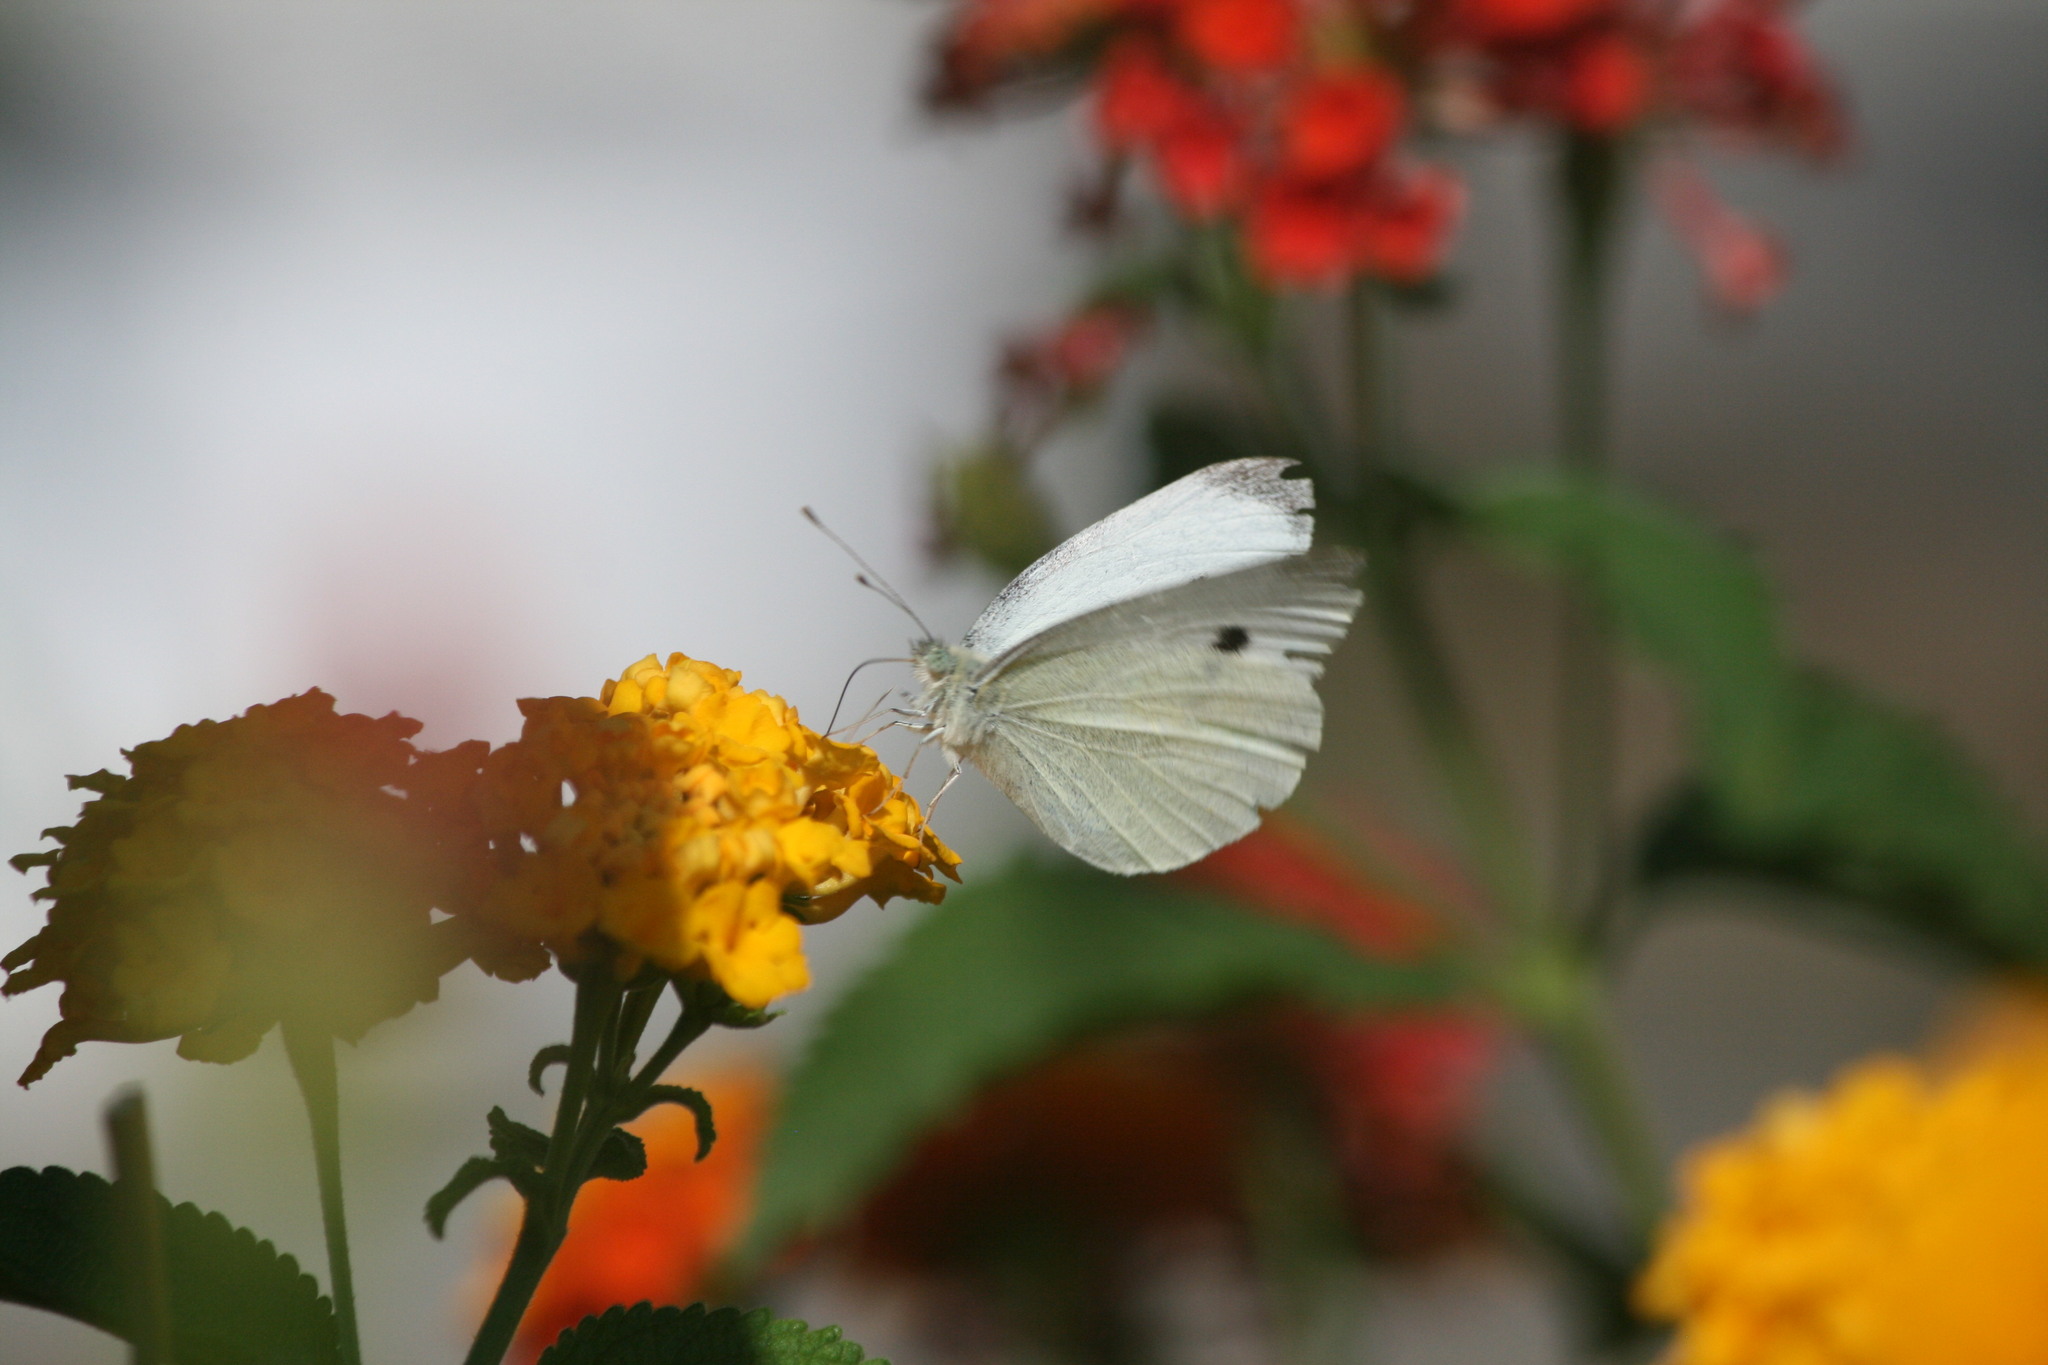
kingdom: Animalia
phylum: Arthropoda
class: Insecta
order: Lepidoptera
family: Pieridae
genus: Pieris
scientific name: Pieris rapae
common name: Small white
